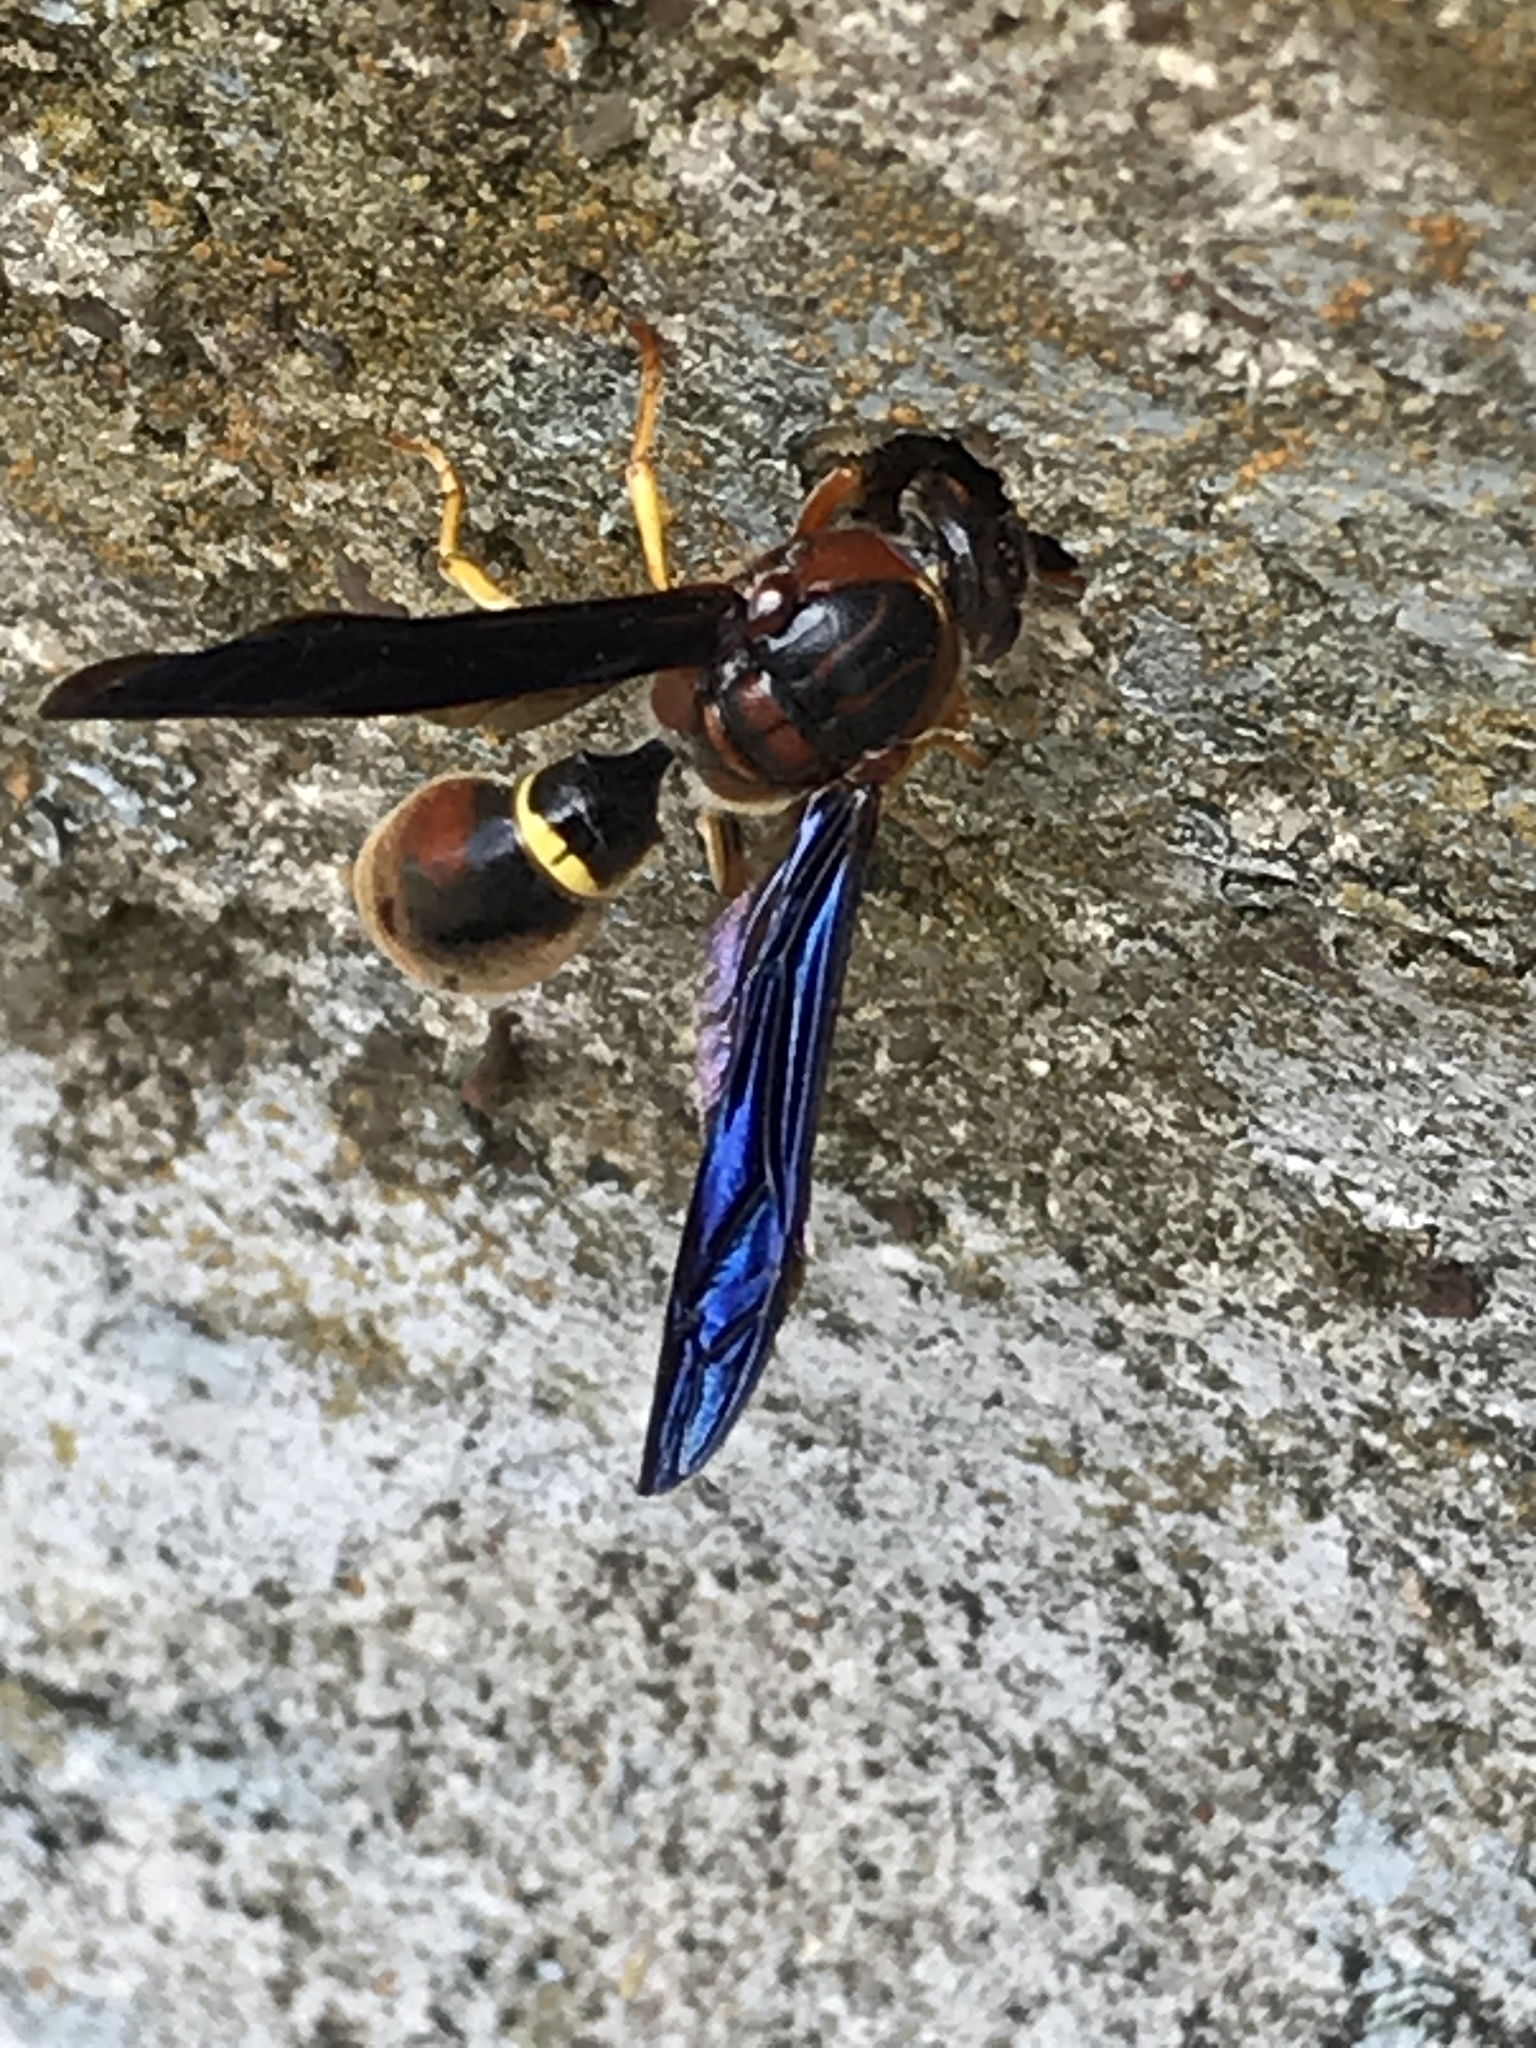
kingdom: Animalia
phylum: Arthropoda
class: Insecta
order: Hymenoptera
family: Eumenidae
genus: Parazumia
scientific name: Parazumia tolteca
